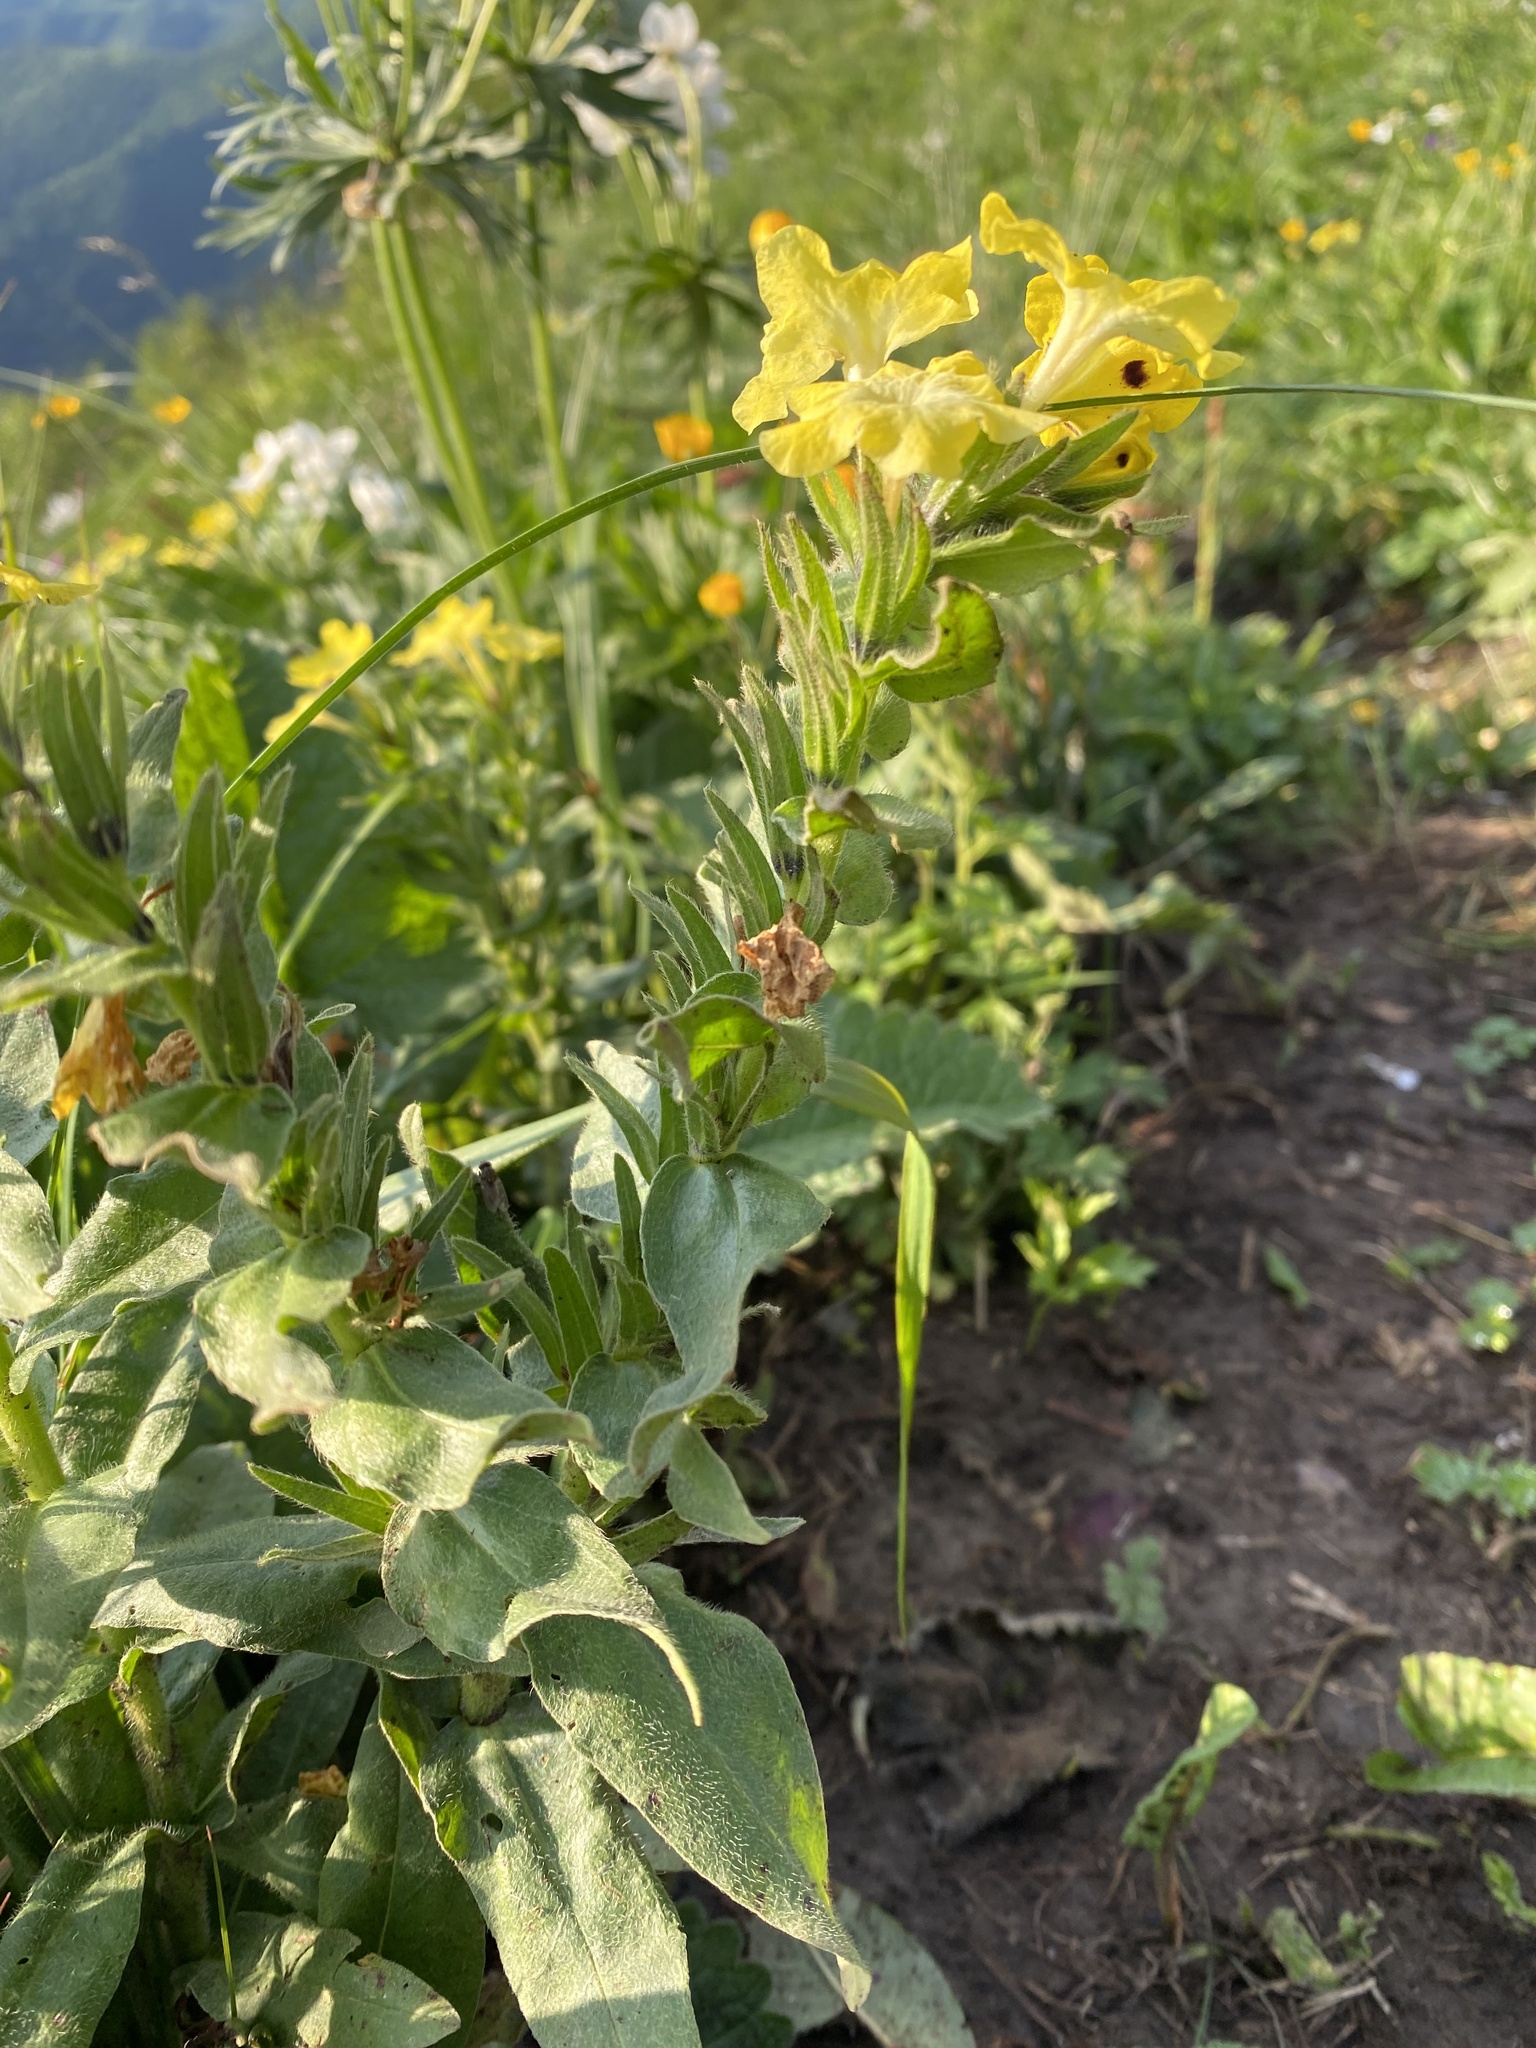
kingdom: Plantae
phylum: Tracheophyta
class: Magnoliopsida
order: Boraginales
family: Boraginaceae
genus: Huynhia
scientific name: Huynhia pulchra
